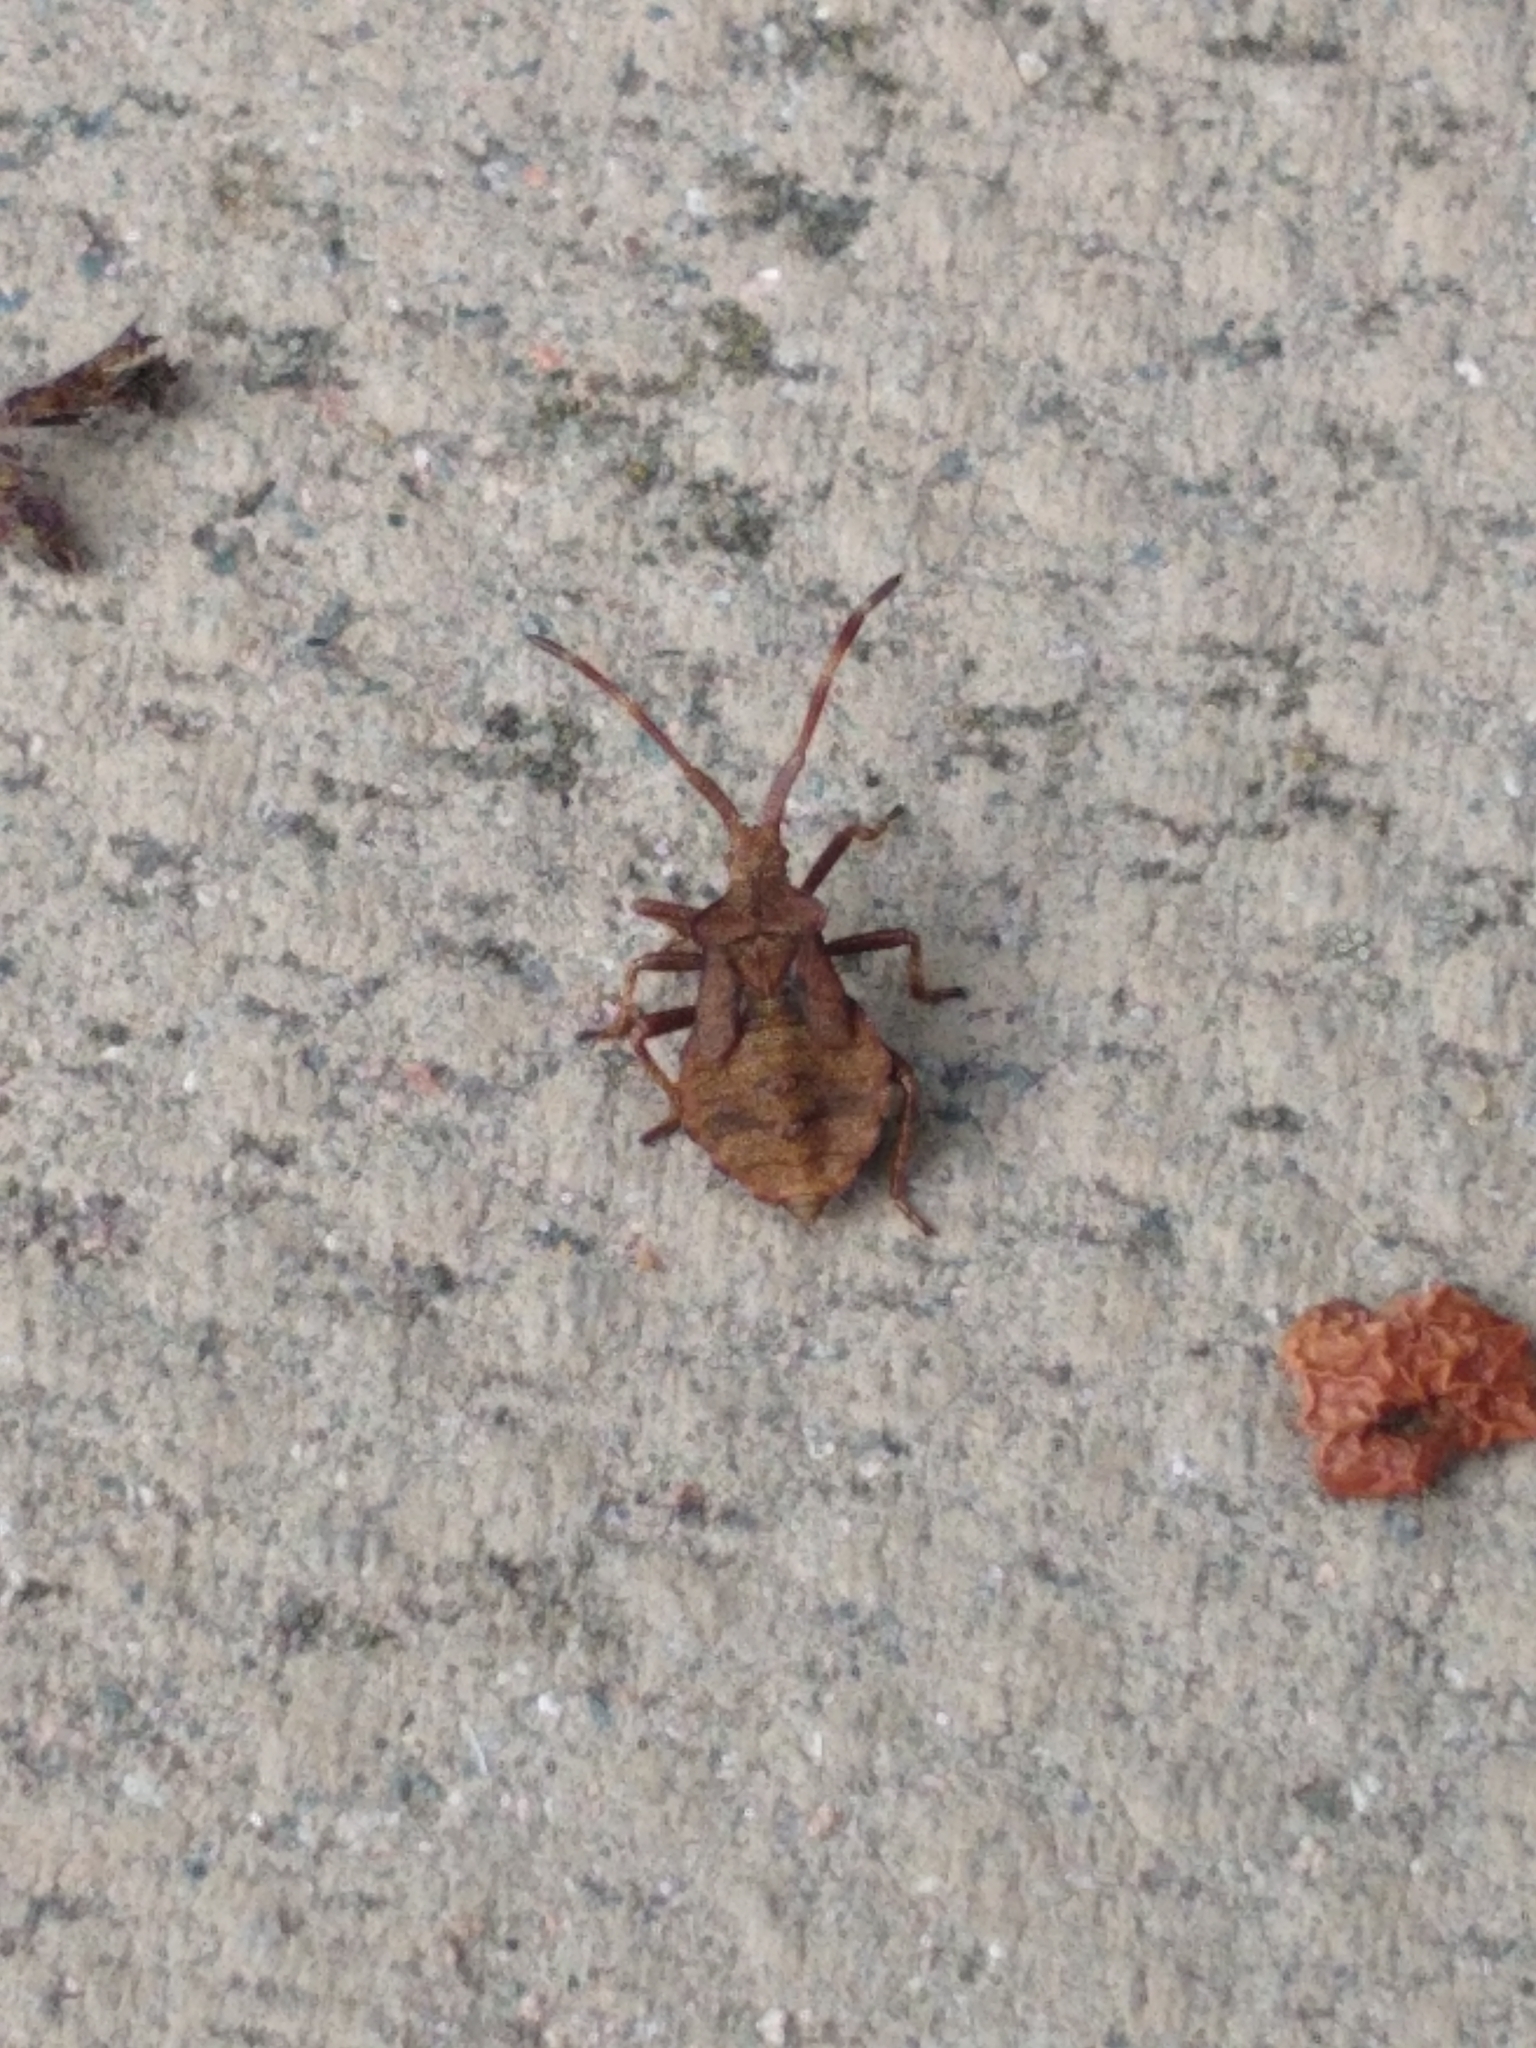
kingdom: Animalia
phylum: Arthropoda
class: Insecta
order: Hemiptera
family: Coreidae
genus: Coreus
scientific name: Coreus marginatus
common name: Dock bug
